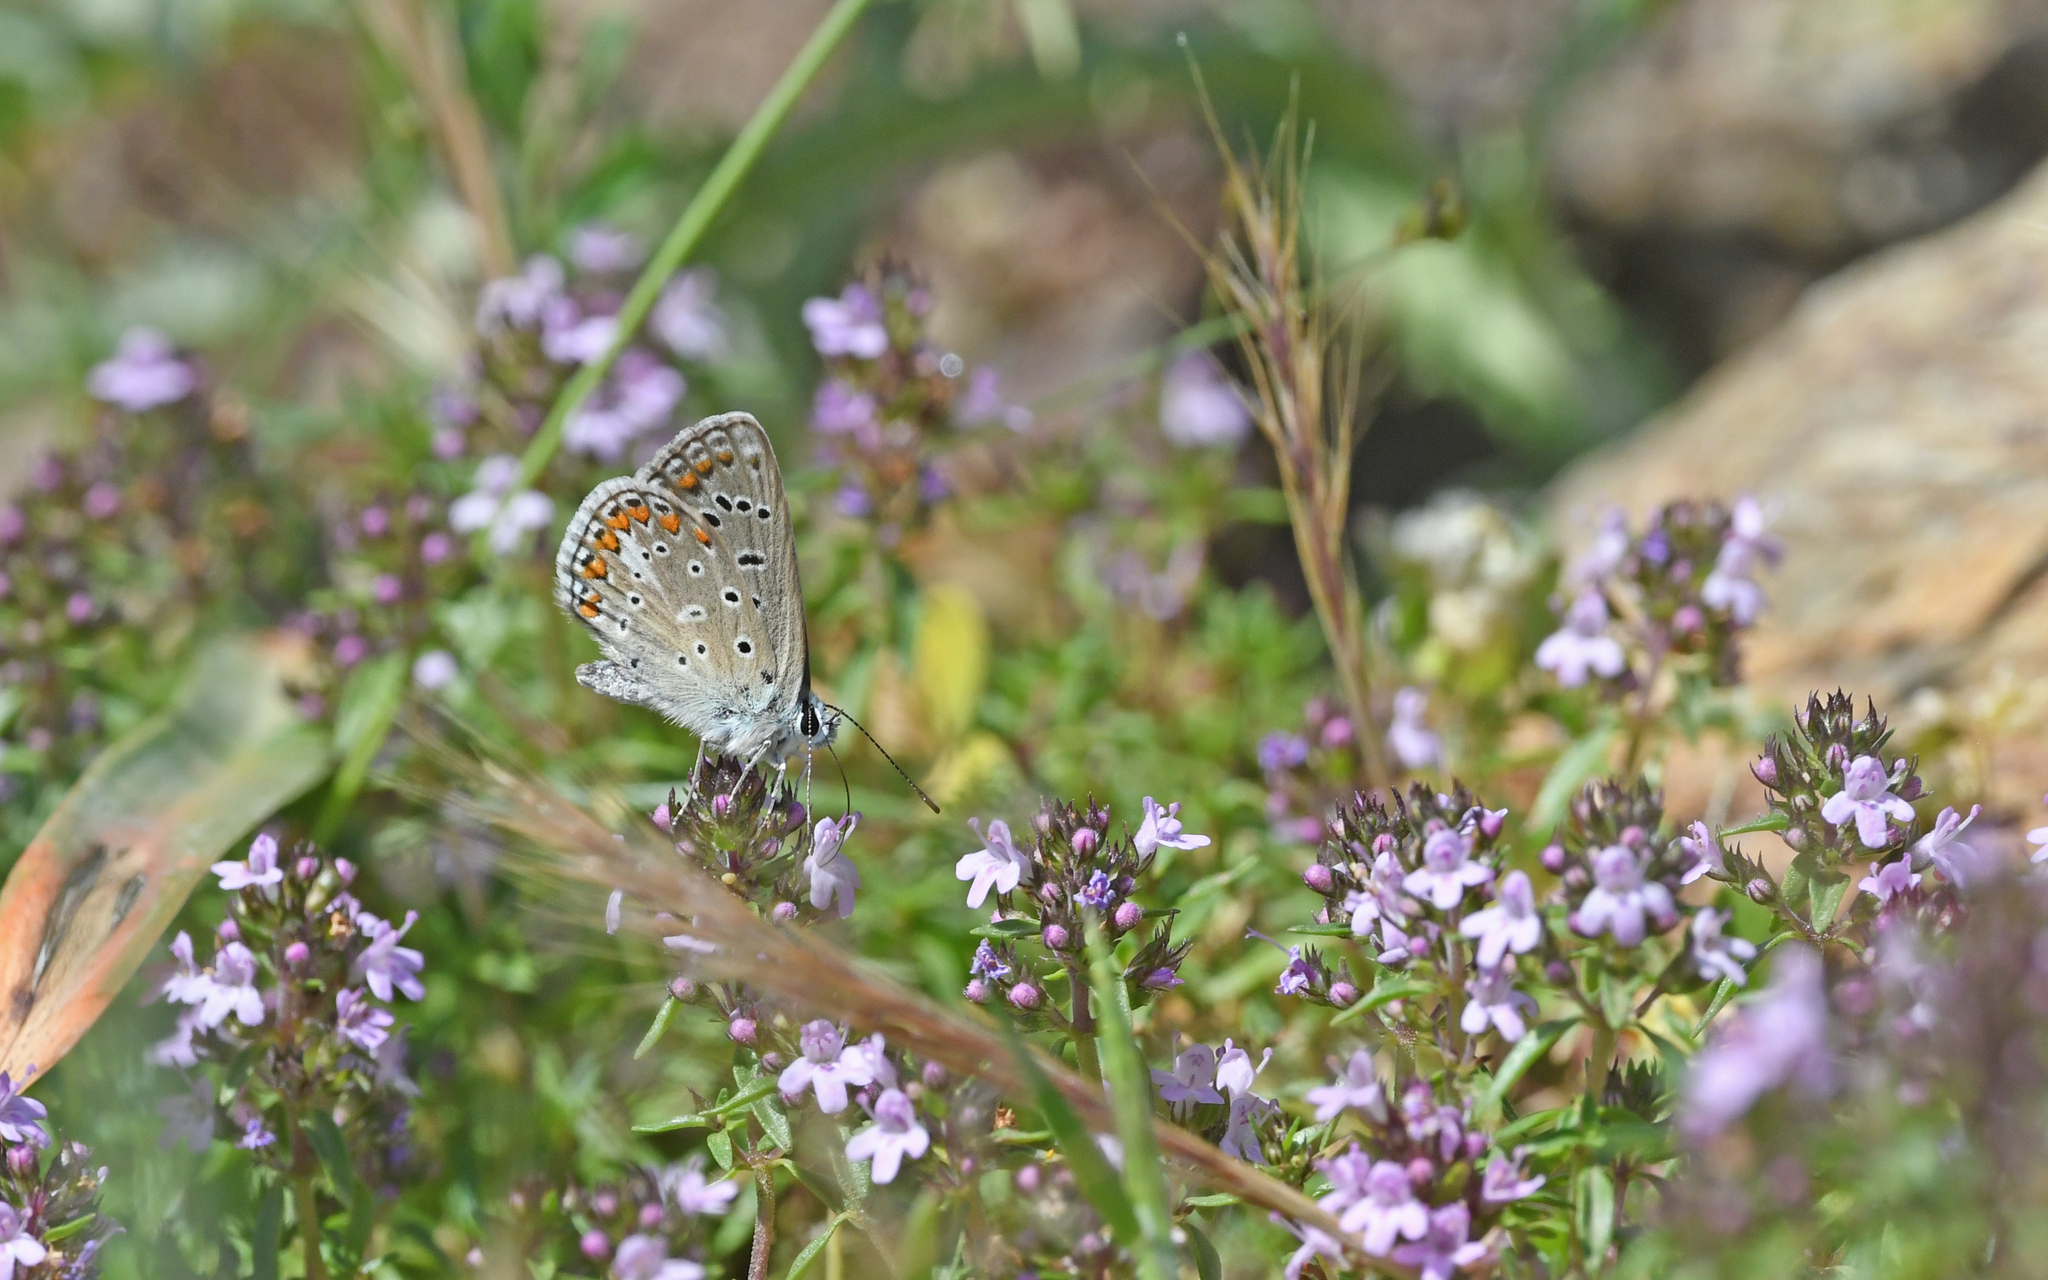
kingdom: Animalia
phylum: Arthropoda
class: Insecta
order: Lepidoptera
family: Lycaenidae
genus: Polyommatus
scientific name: Polyommatus celina
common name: Austaut's blue
